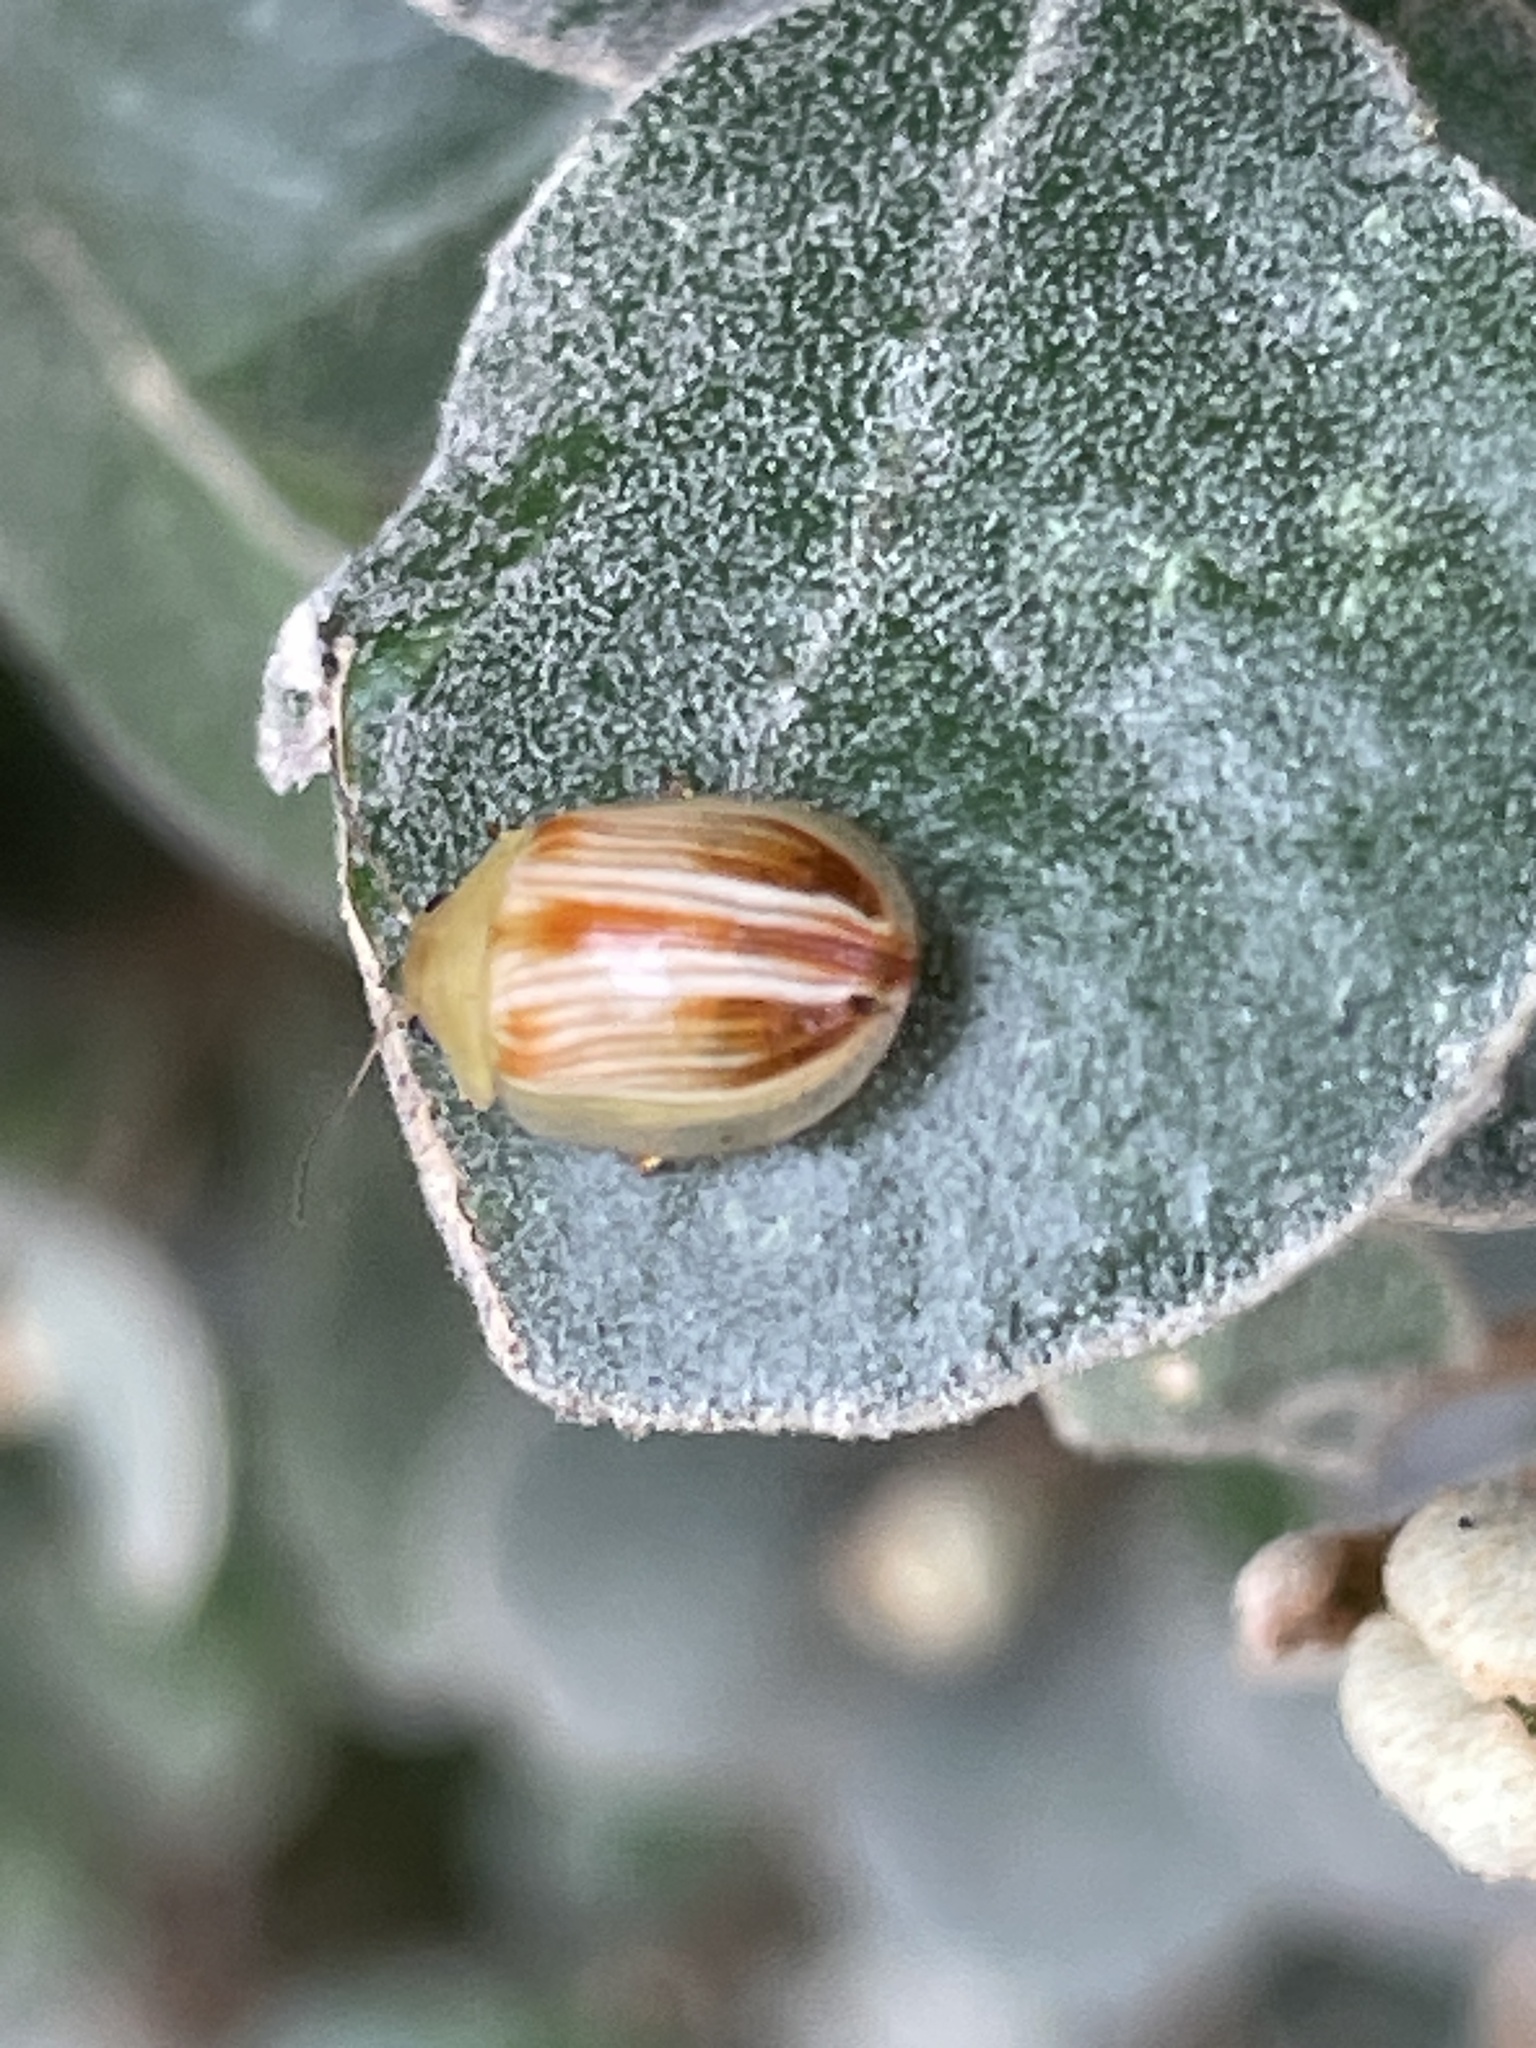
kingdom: Animalia
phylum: Arthropoda
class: Insecta
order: Coleoptera
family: Chrysomelidae
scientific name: Chrysomelidae
